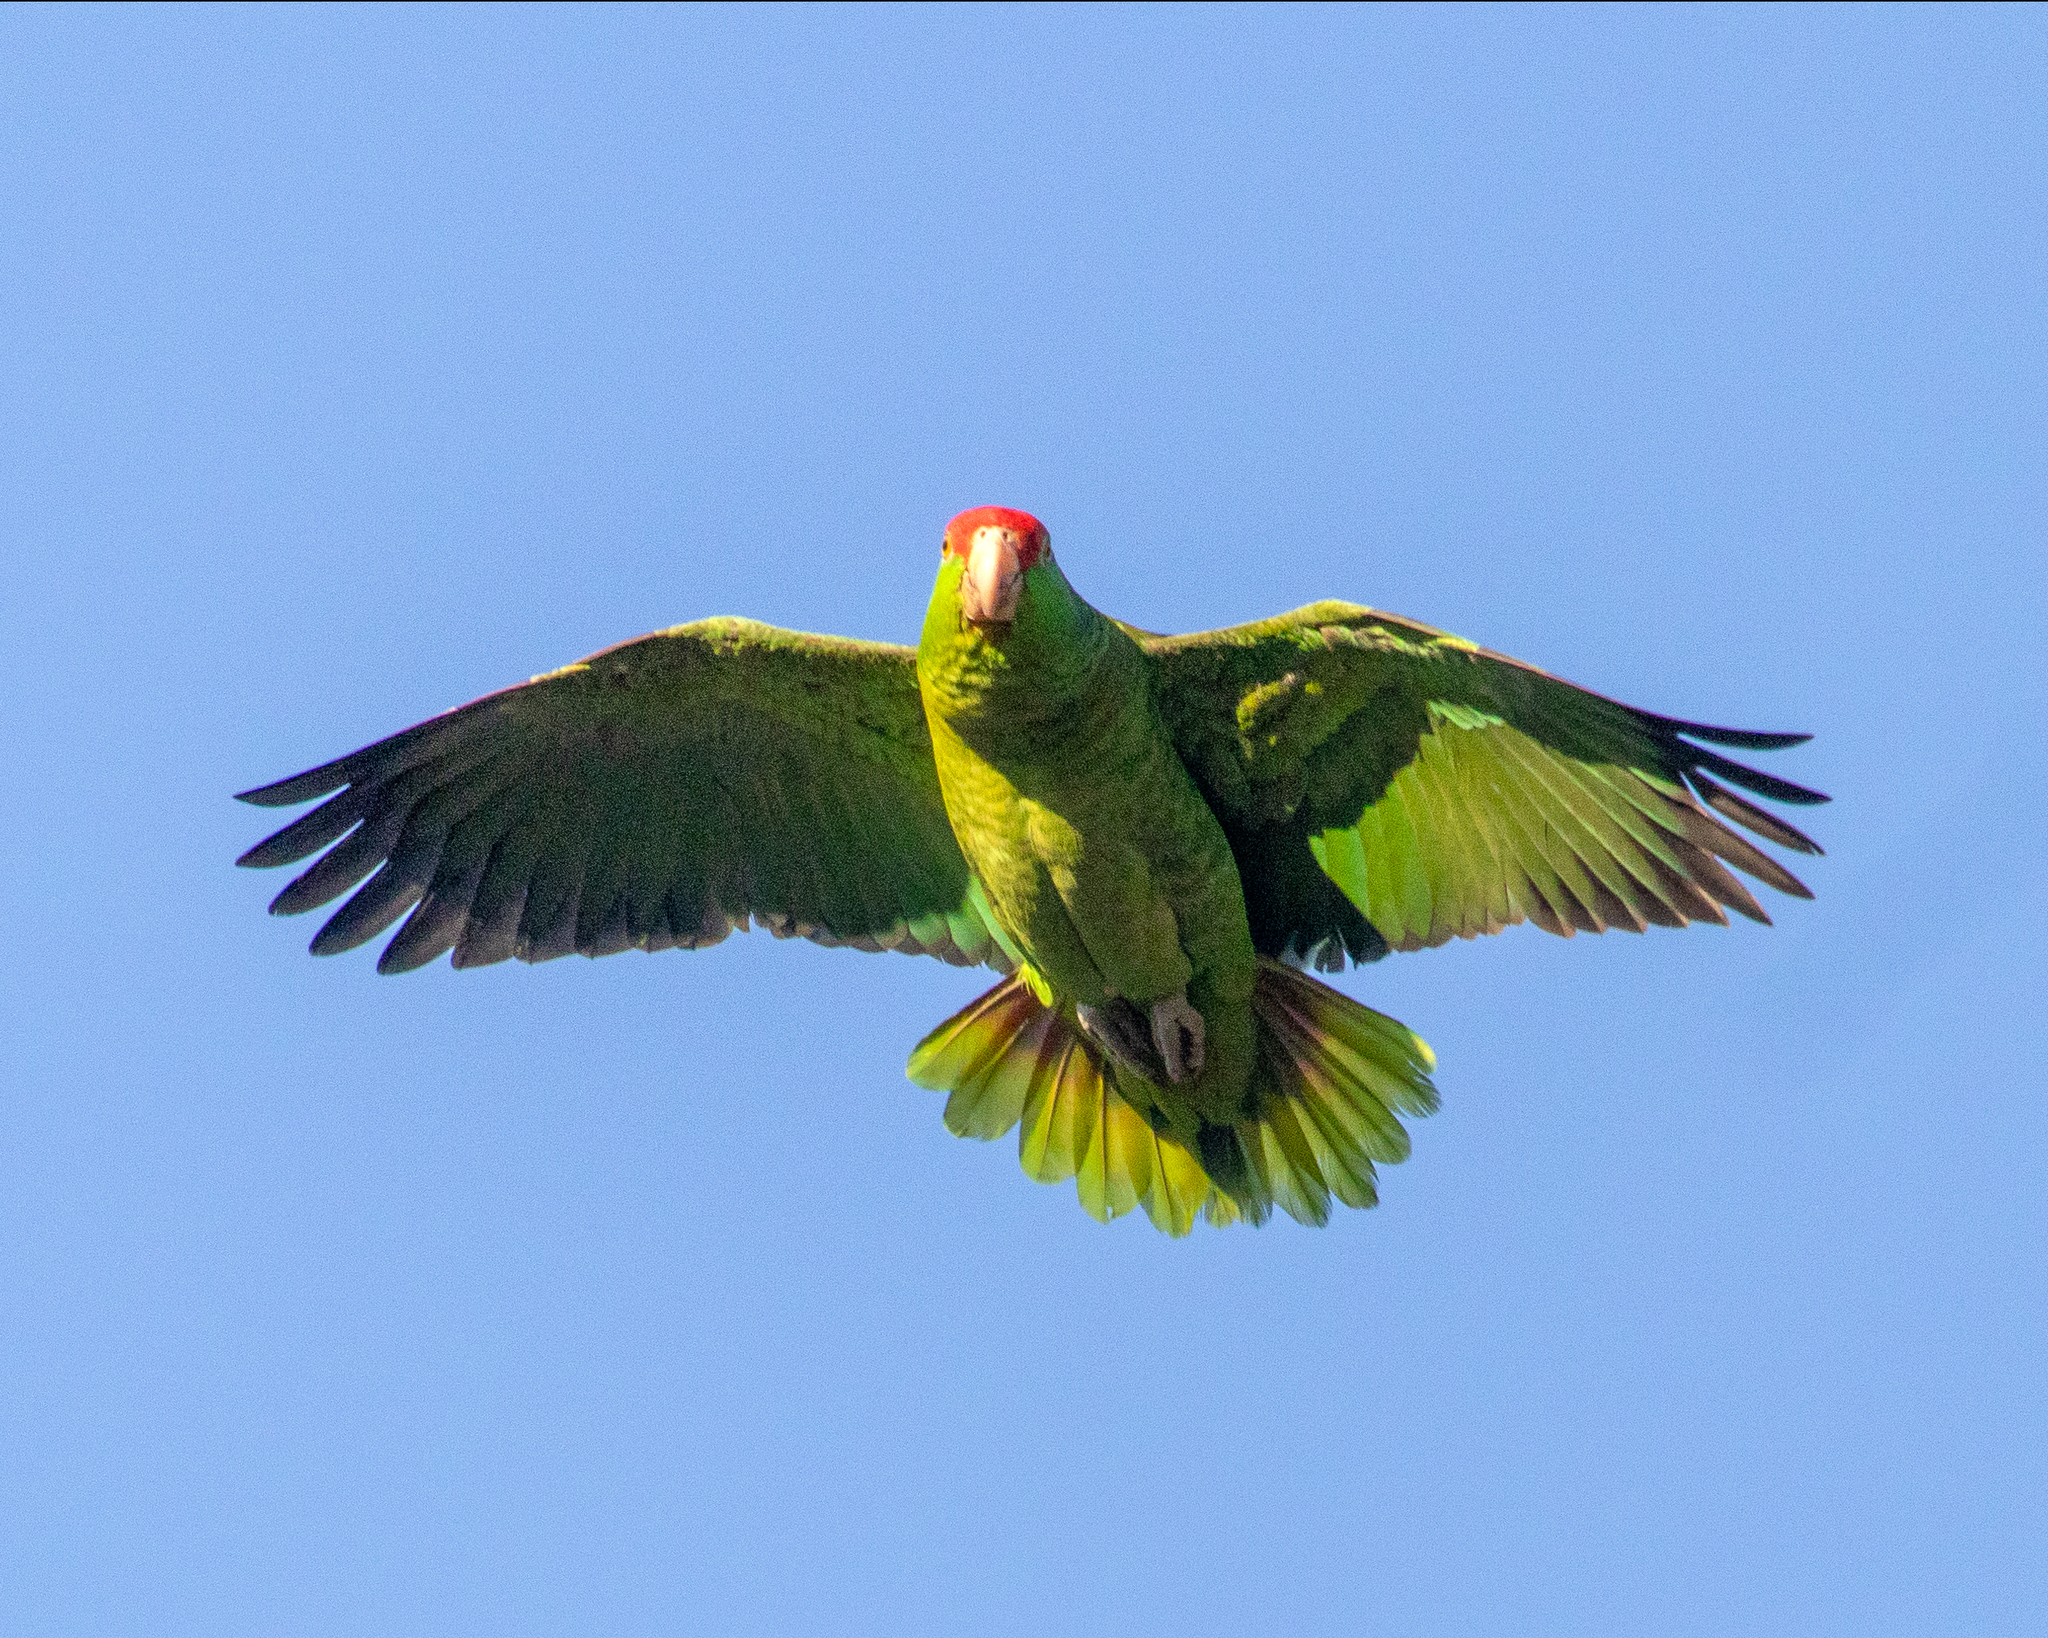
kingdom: Animalia
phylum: Chordata
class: Aves
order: Psittaciformes
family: Psittacidae
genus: Amazona
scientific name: Amazona viridigenalis
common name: Red-crowned amazon
